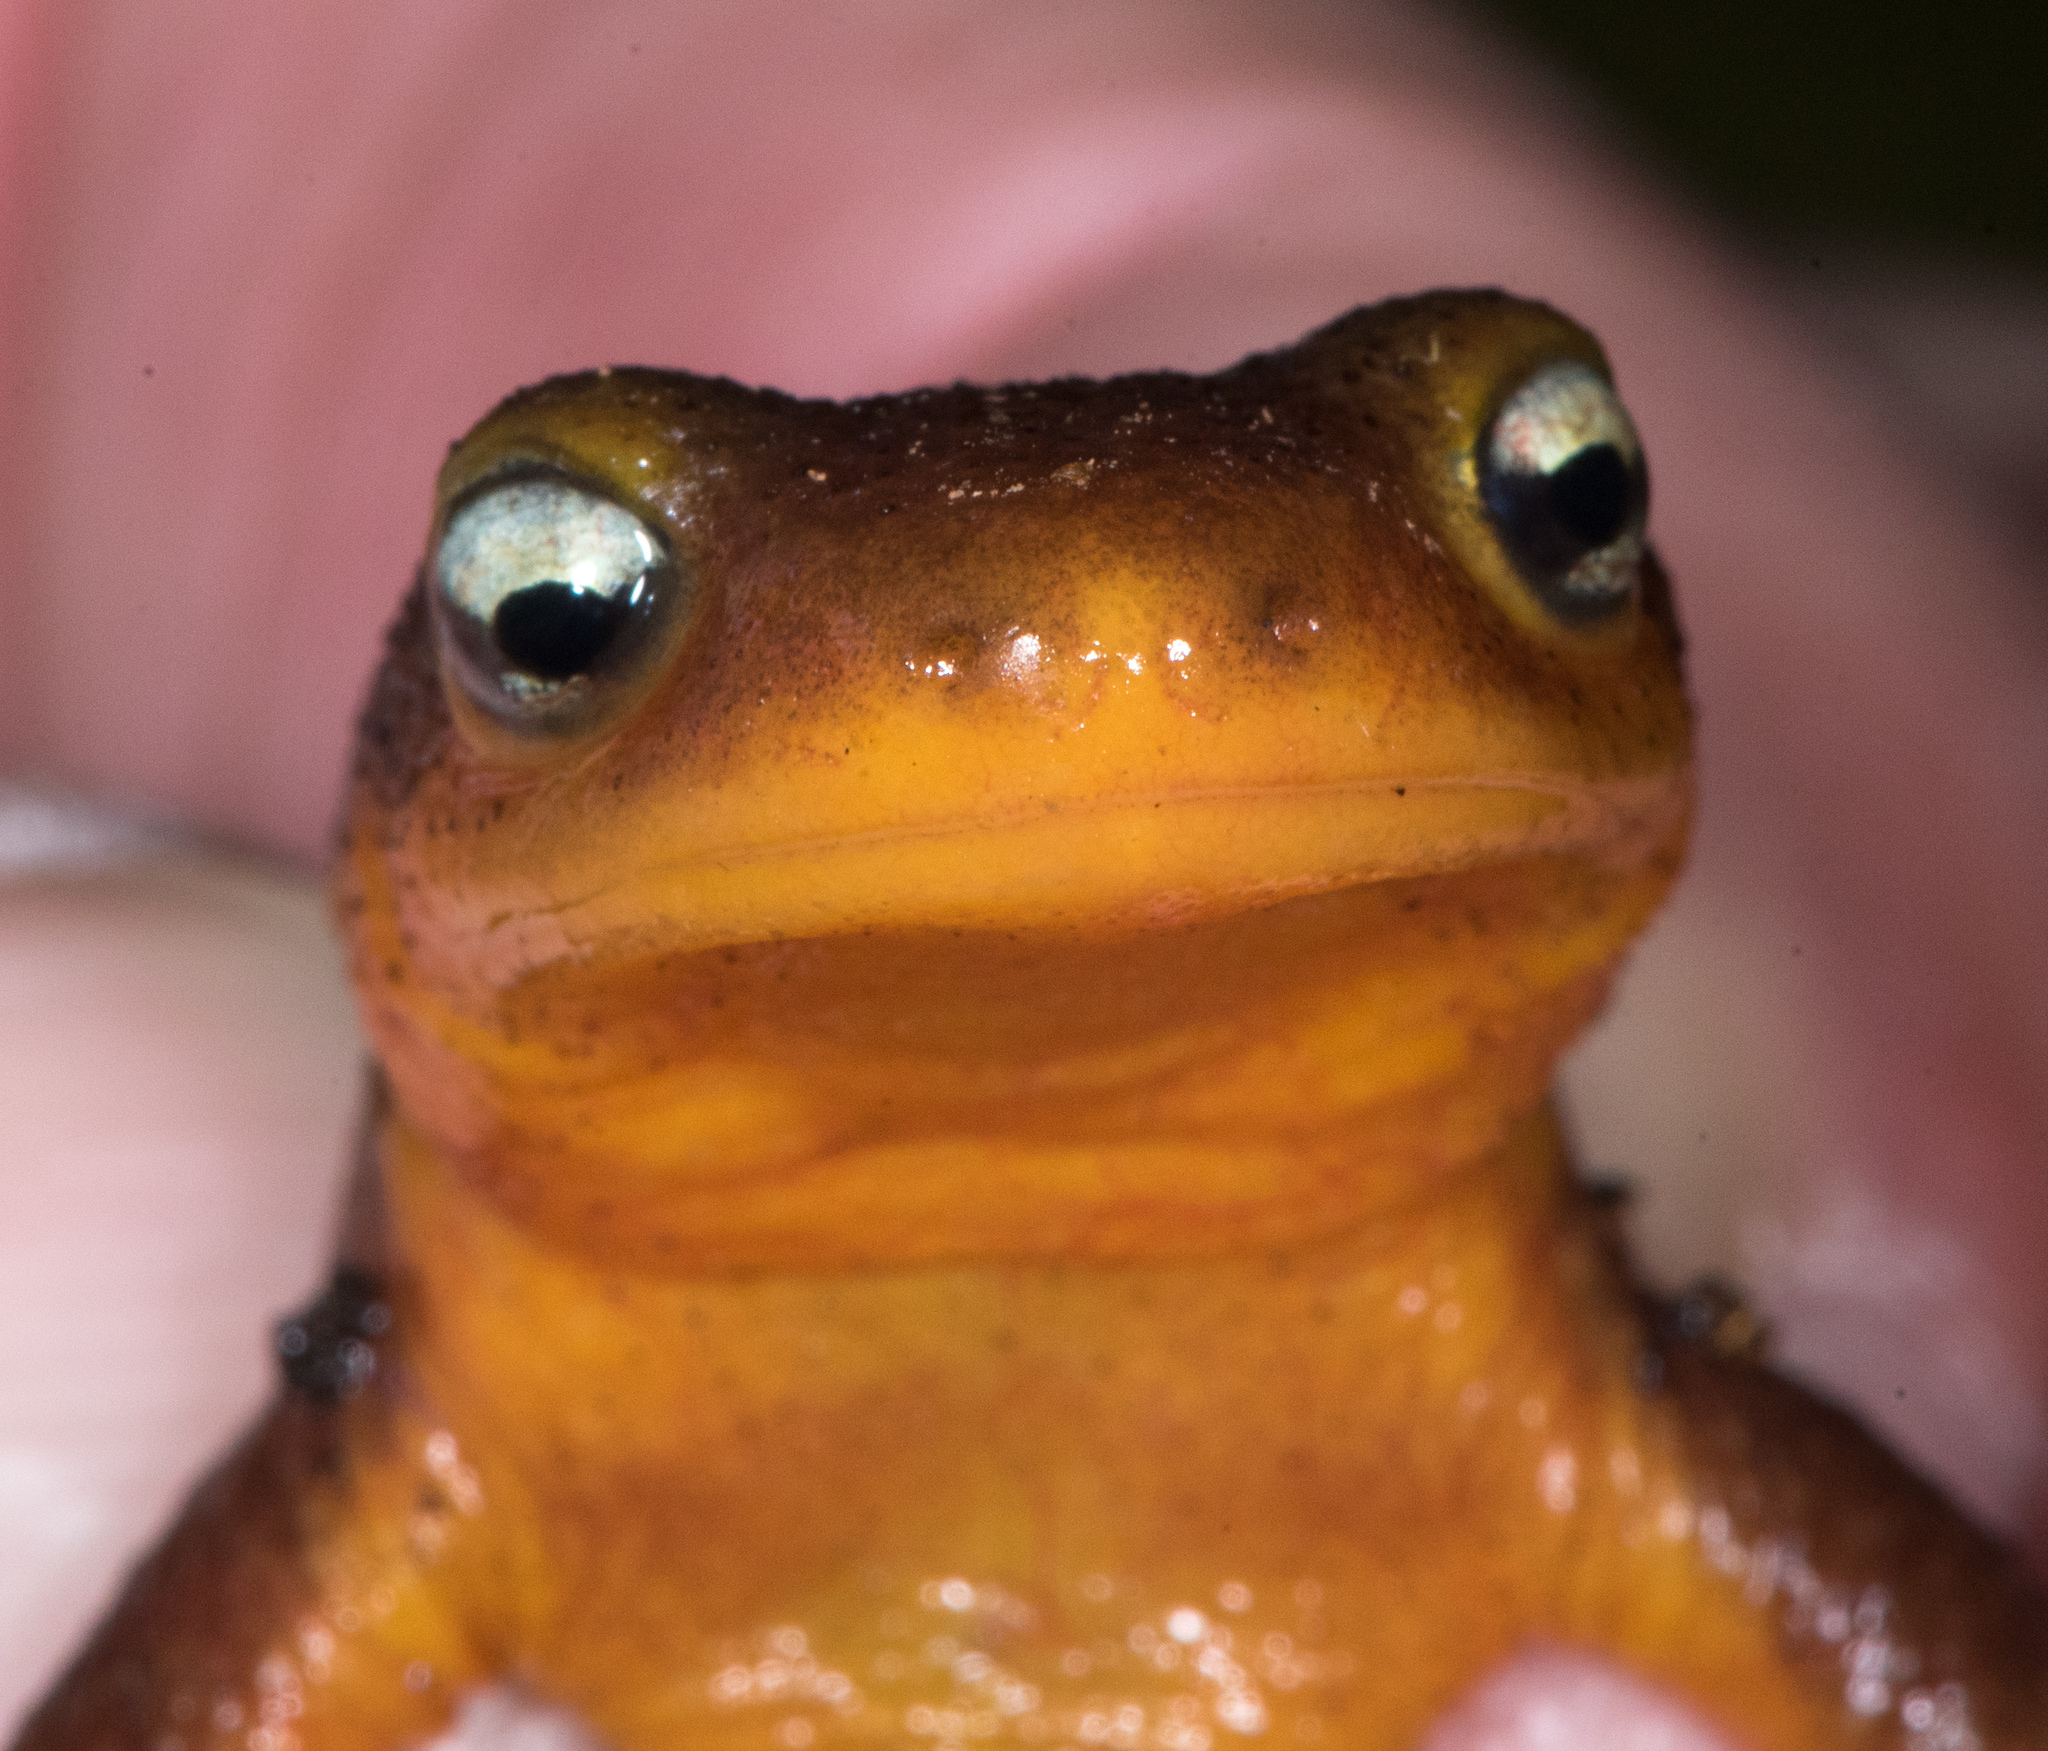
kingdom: Animalia
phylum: Chordata
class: Amphibia
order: Caudata
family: Salamandridae
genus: Taricha
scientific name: Taricha torosa
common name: California newt
